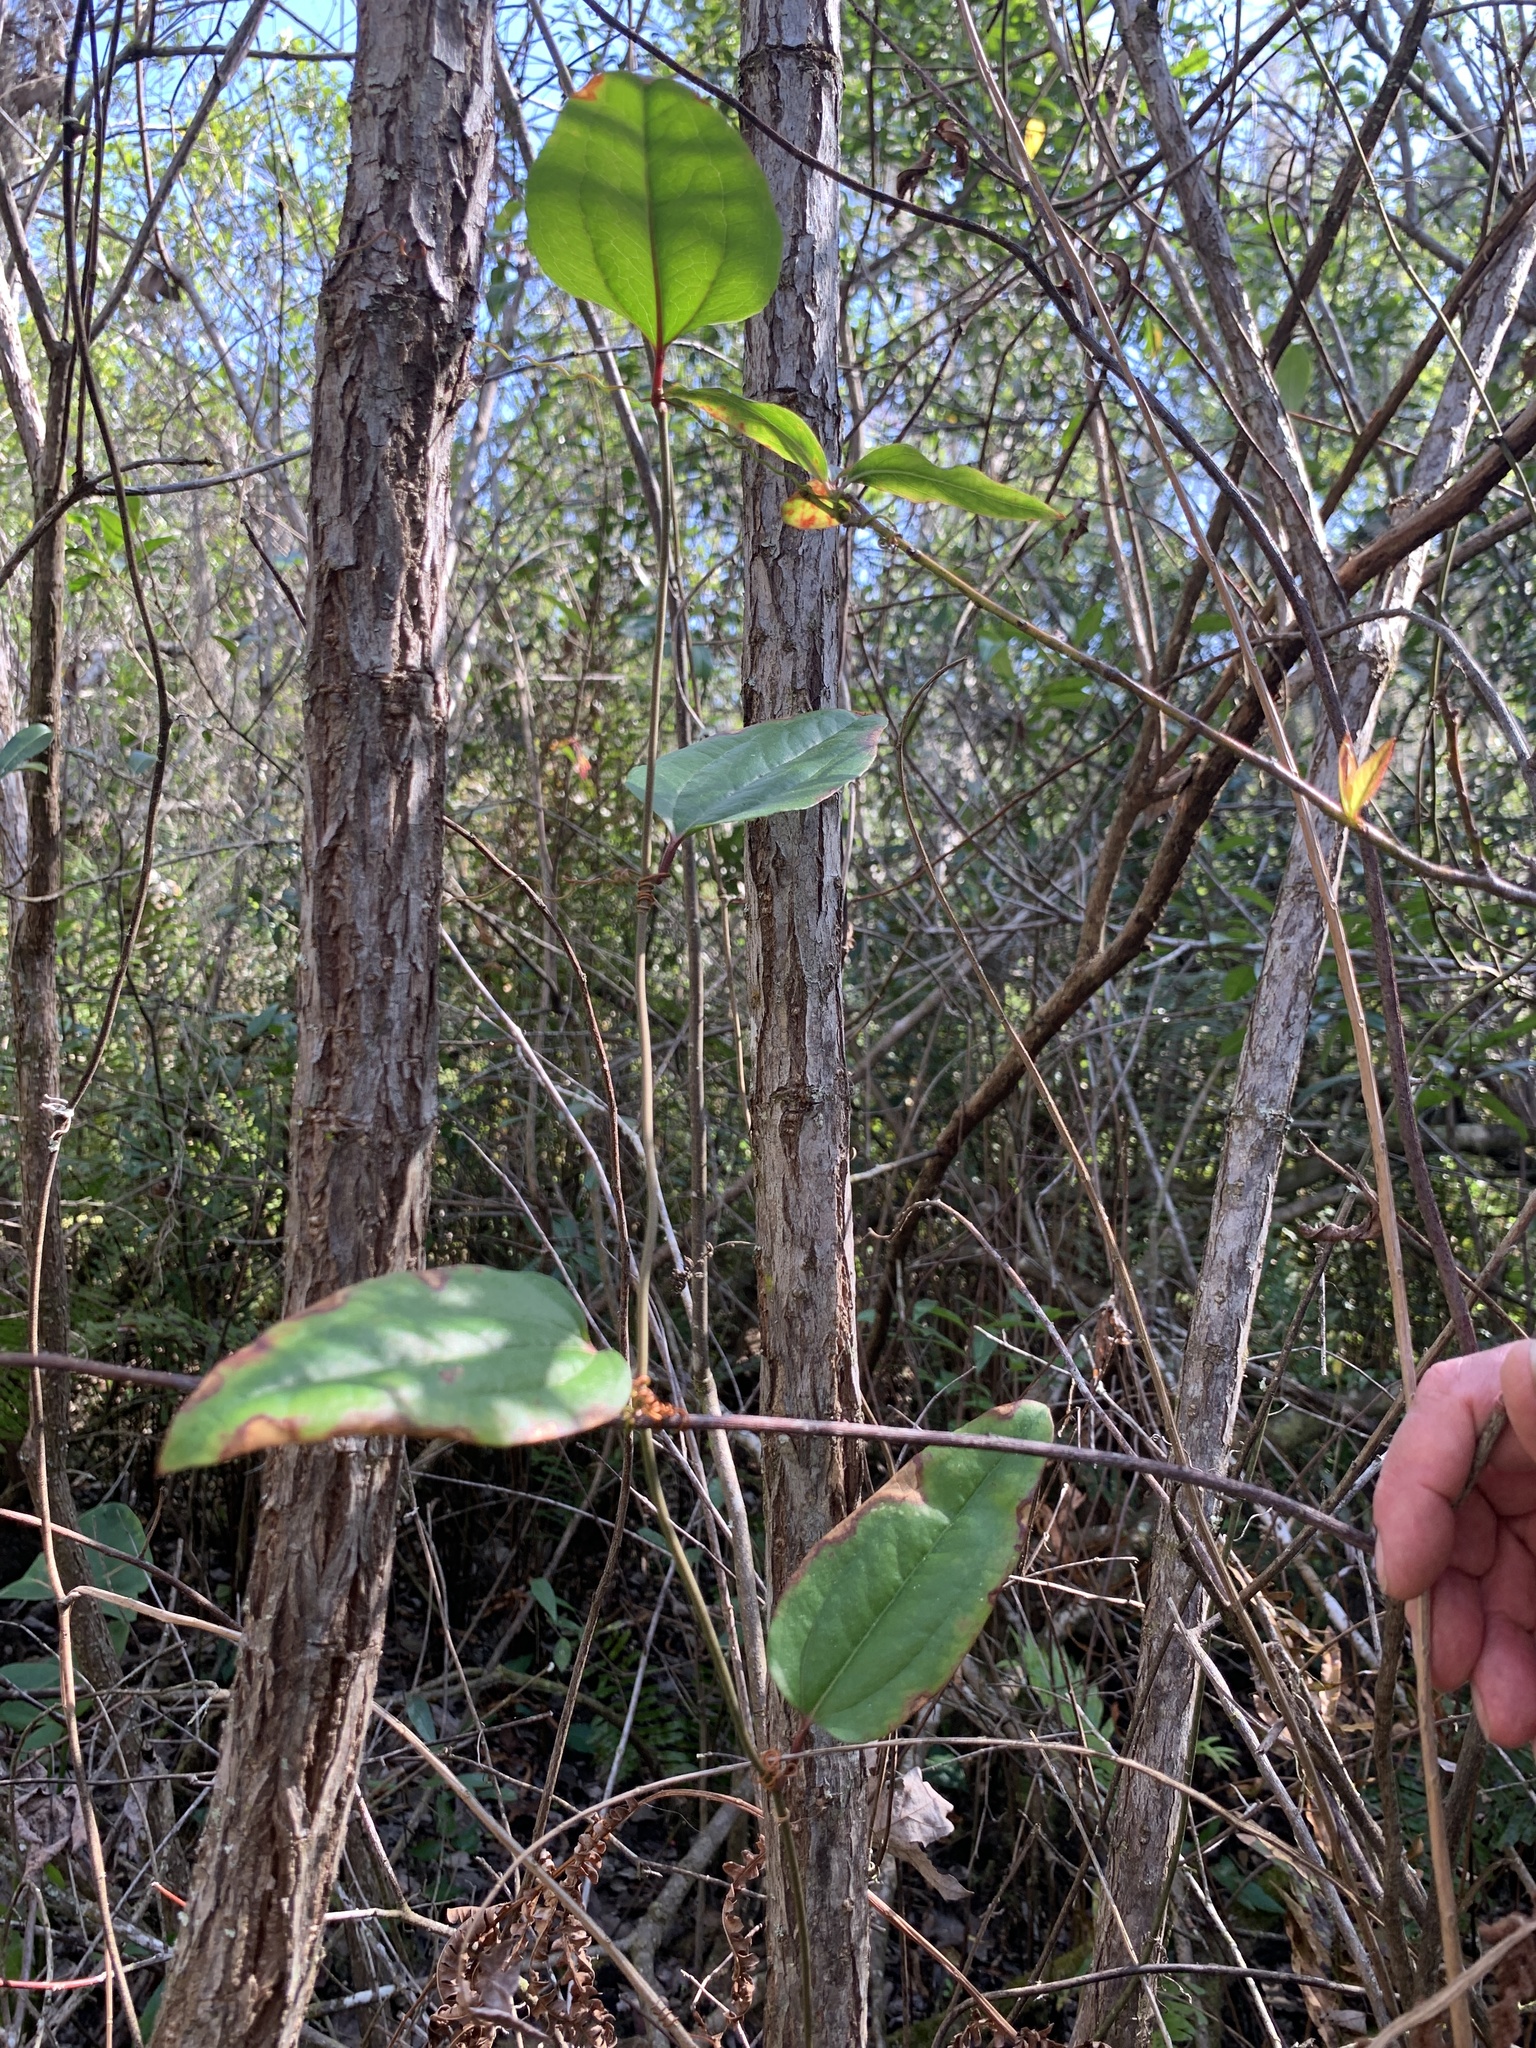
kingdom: Plantae
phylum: Tracheophyta
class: Liliopsida
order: Liliales
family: Smilacaceae
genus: Smilax
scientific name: Smilax walteri
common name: Coral greenbrier
